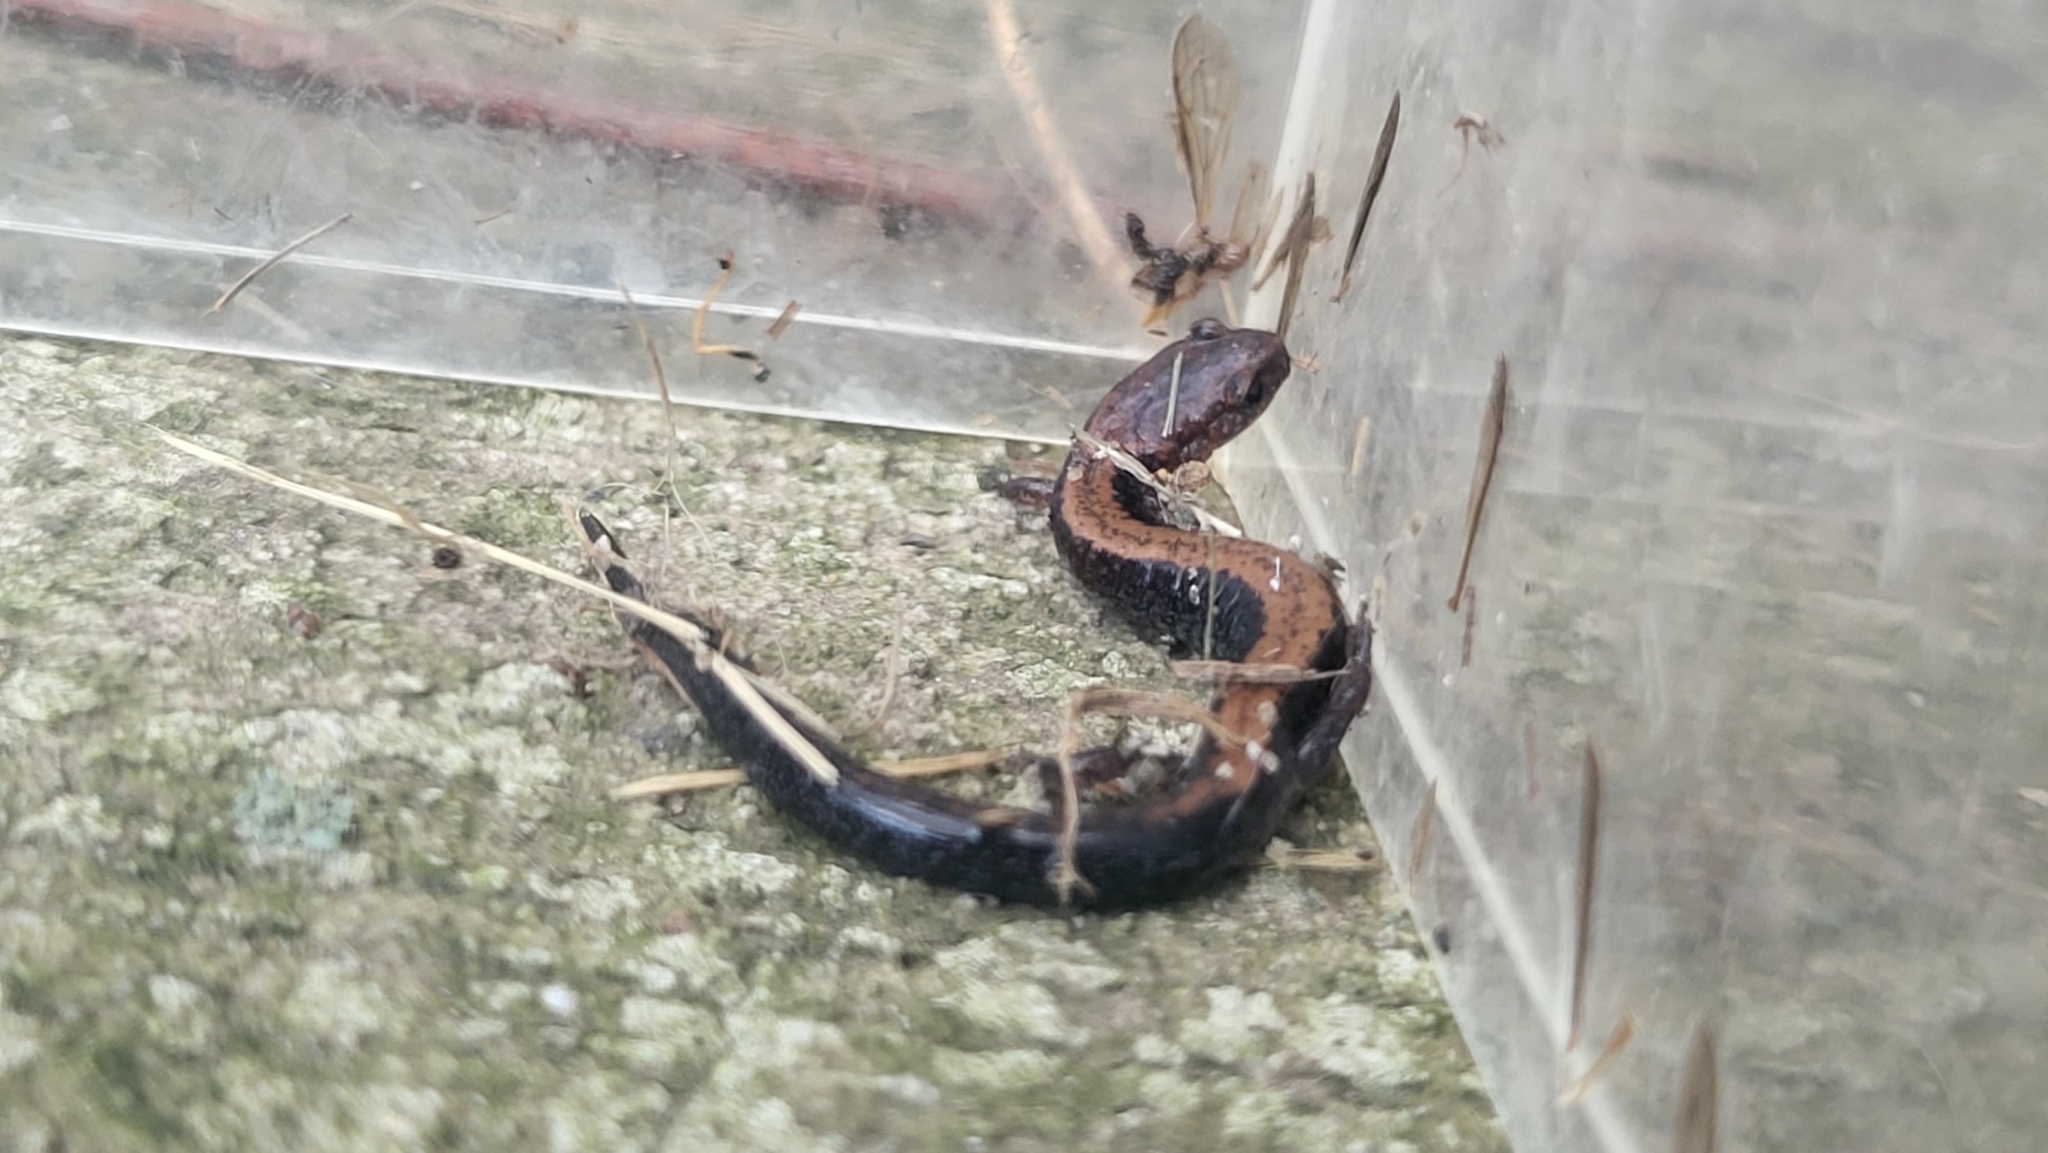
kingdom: Animalia
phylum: Chordata
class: Amphibia
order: Caudata
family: Plethodontidae
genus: Plethodon
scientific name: Plethodon cinereus
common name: Redback salamander
